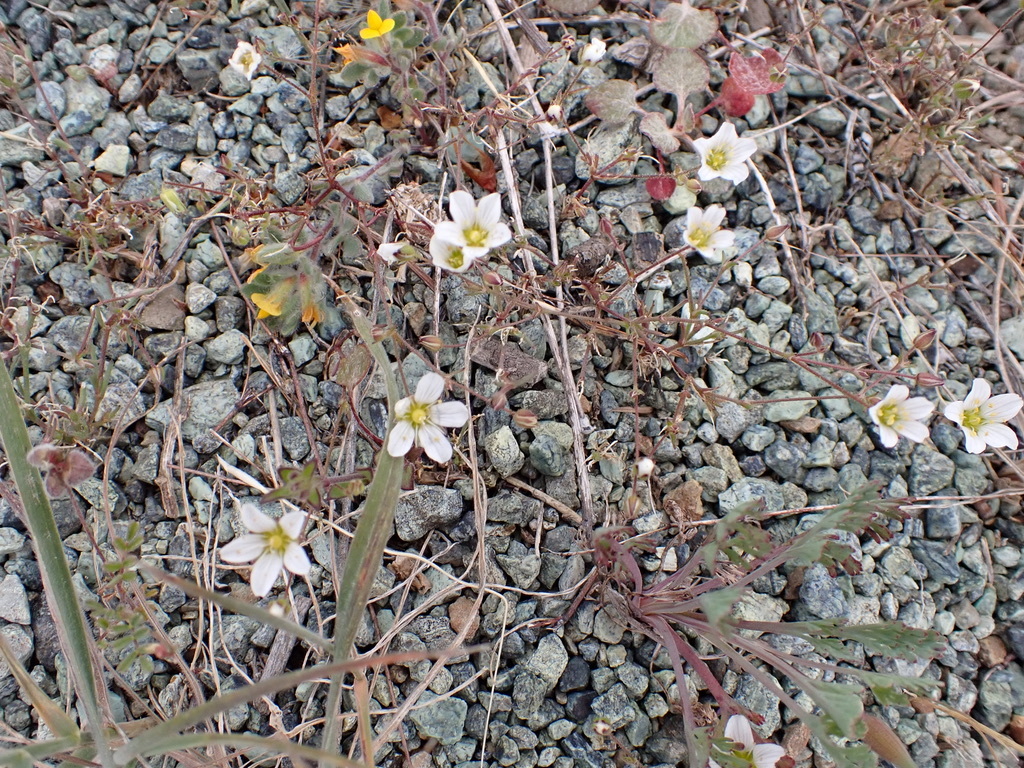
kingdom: Plantae
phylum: Tracheophyta
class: Magnoliopsida
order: Caryophyllales
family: Caryophyllaceae
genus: Sabulina
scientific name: Sabulina douglasii
